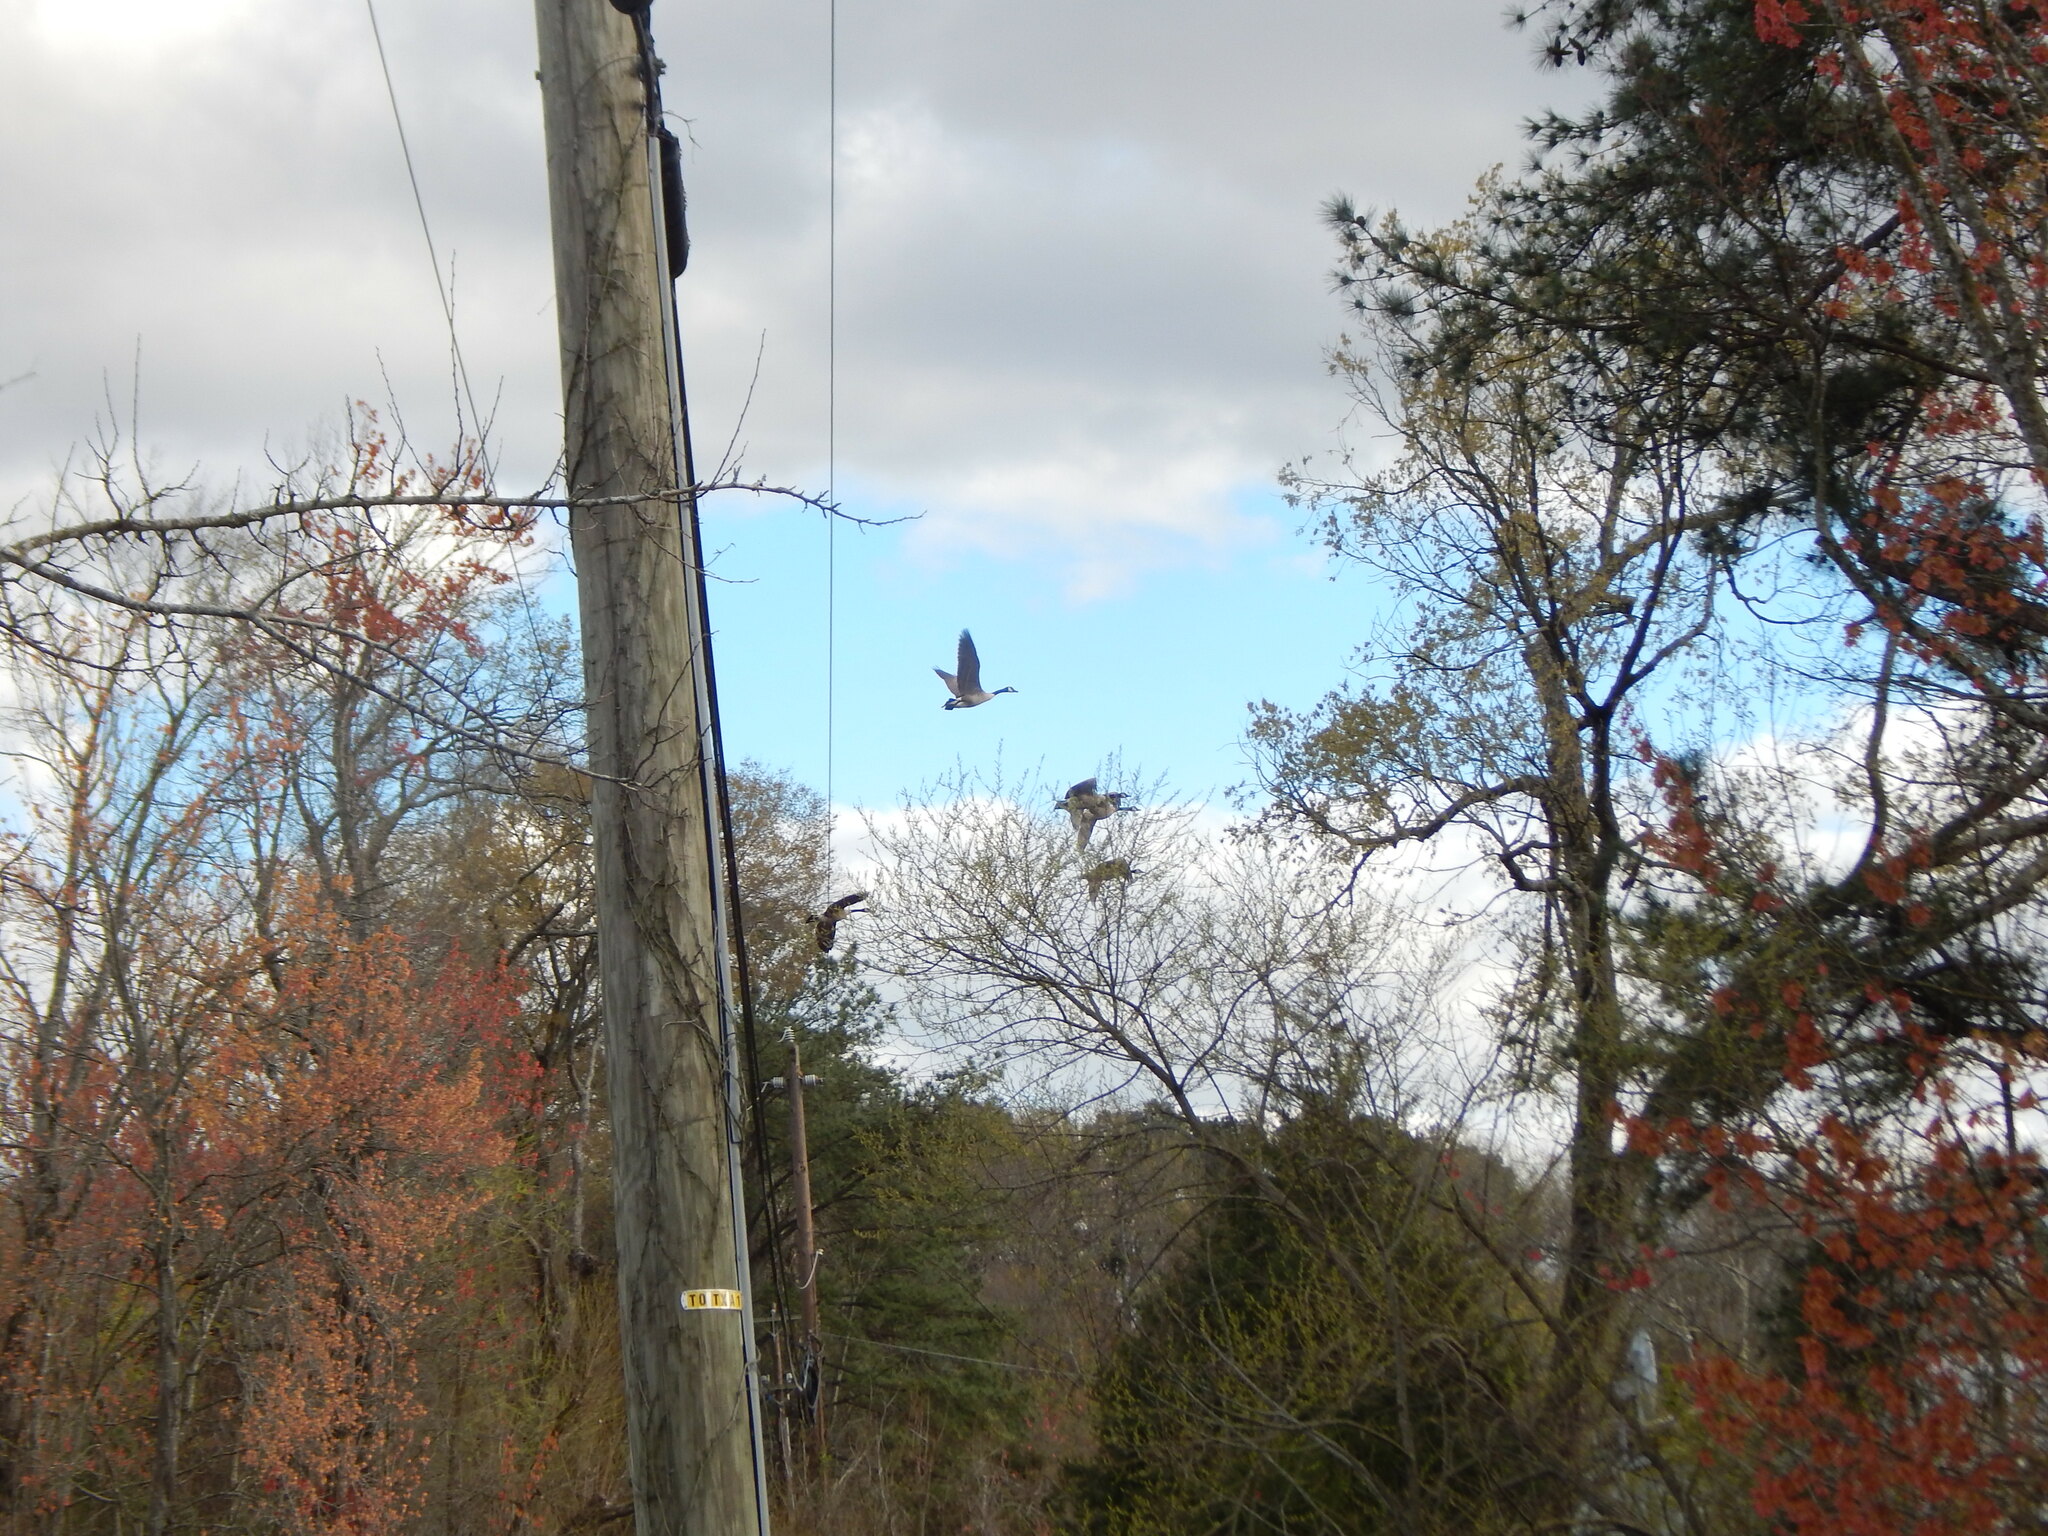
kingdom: Animalia
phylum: Chordata
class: Aves
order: Anseriformes
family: Anatidae
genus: Branta
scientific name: Branta canadensis
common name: Canada goose
